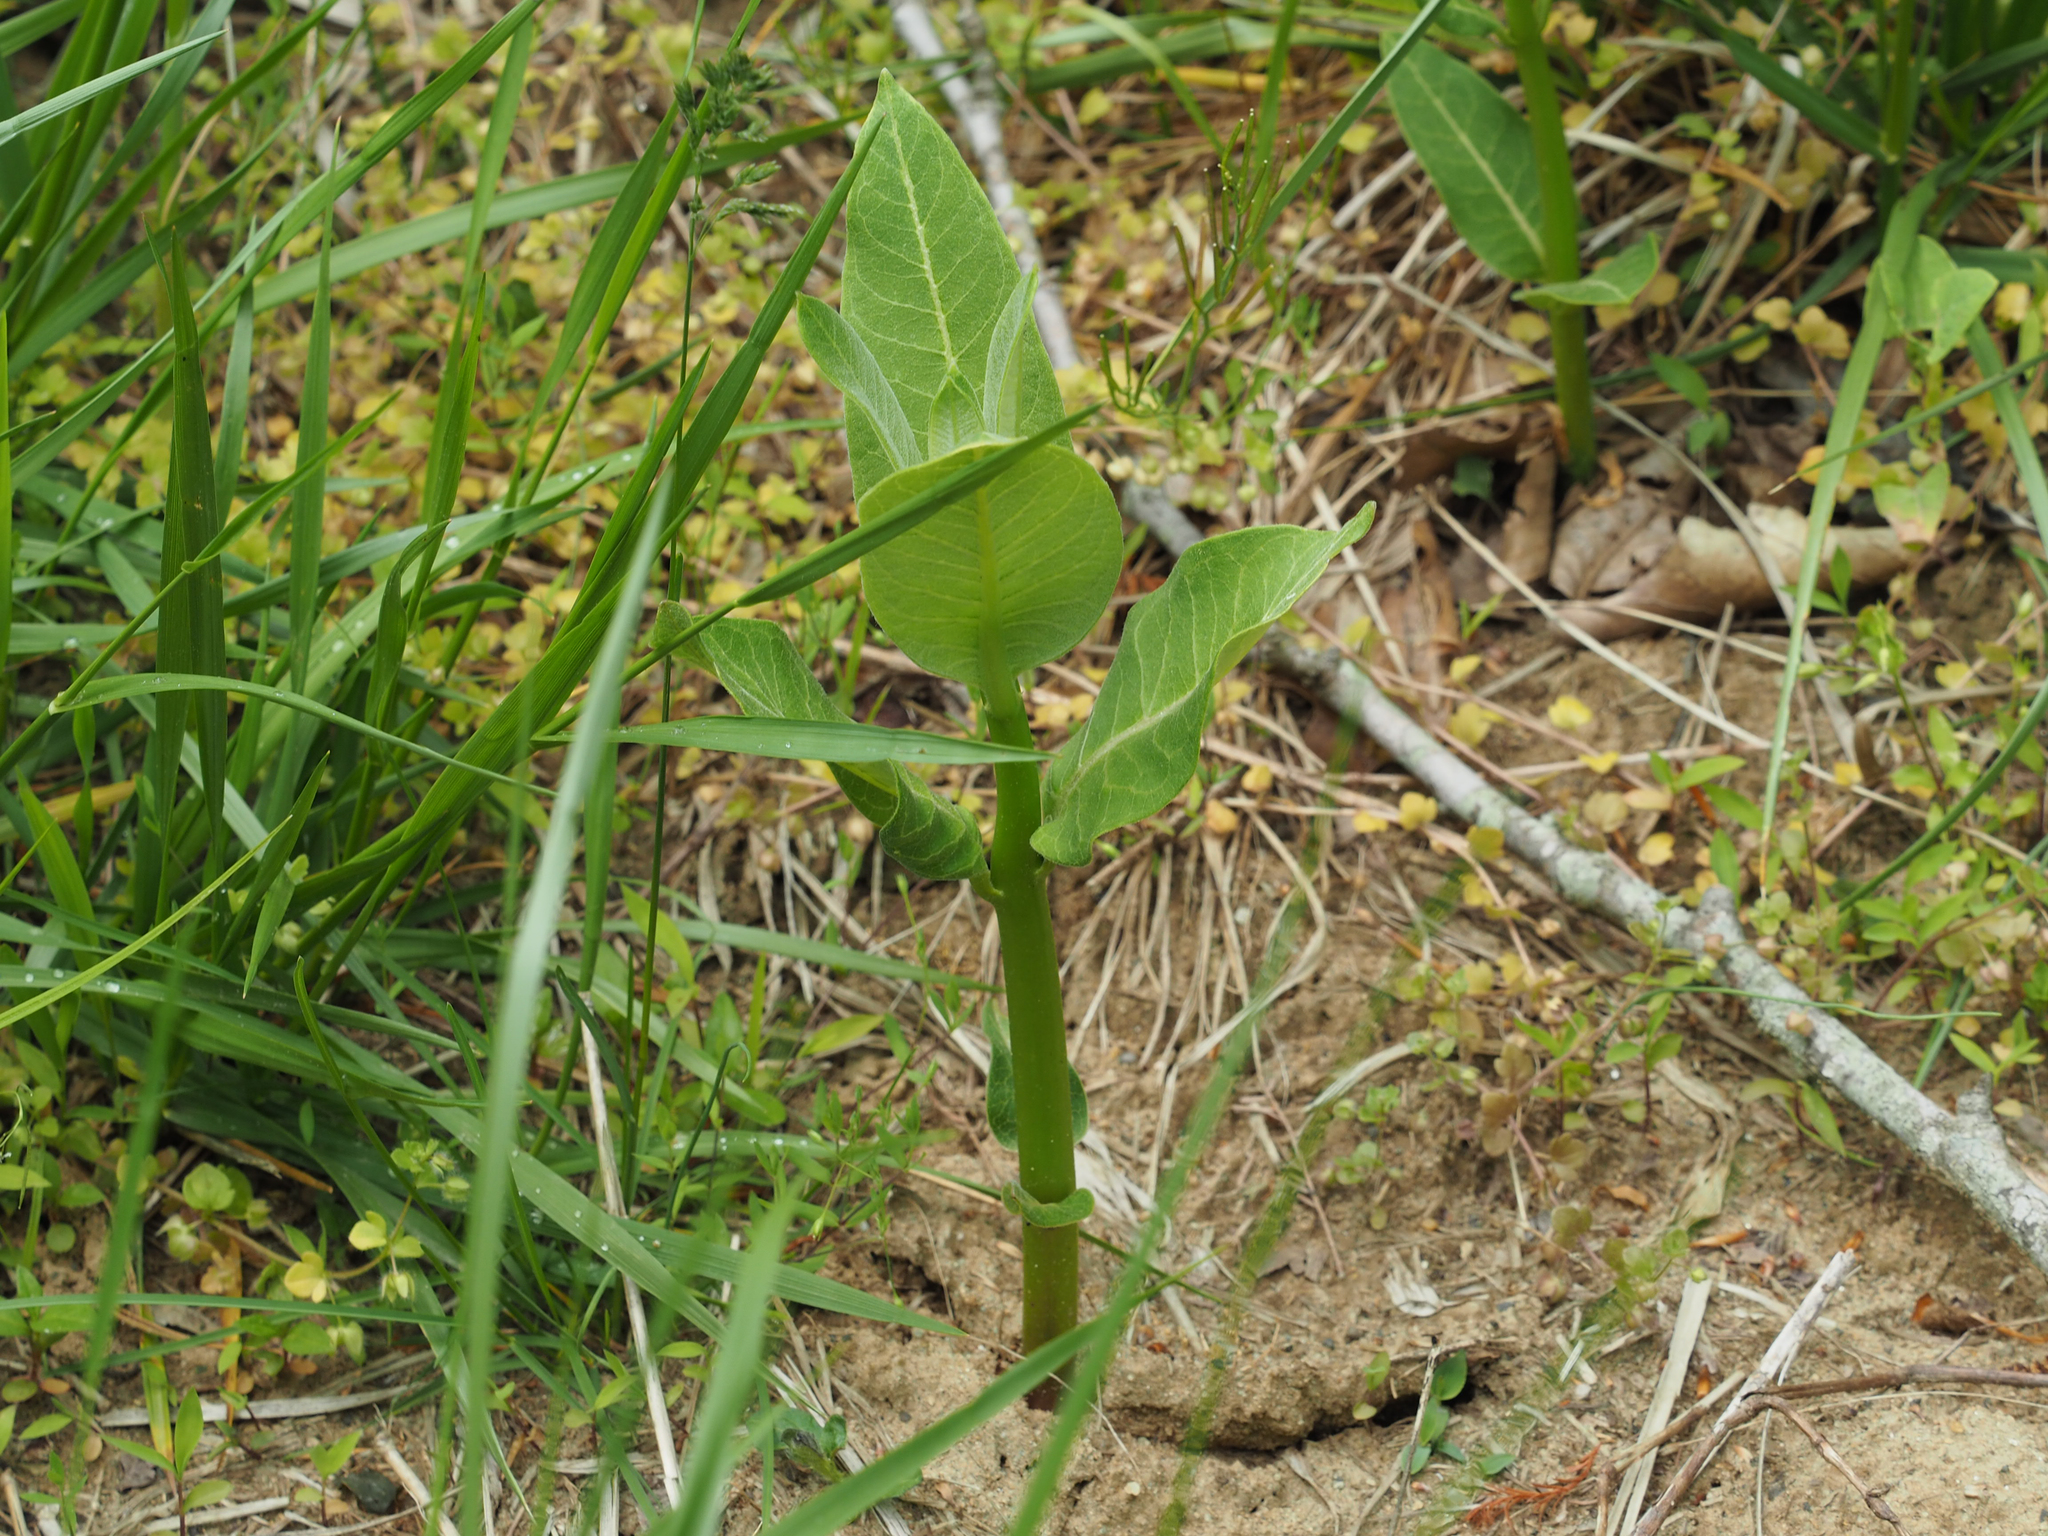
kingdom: Plantae
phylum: Tracheophyta
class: Magnoliopsida
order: Gentianales
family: Apocynaceae
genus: Asclepias
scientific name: Asclepias syriaca
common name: Common milkweed
